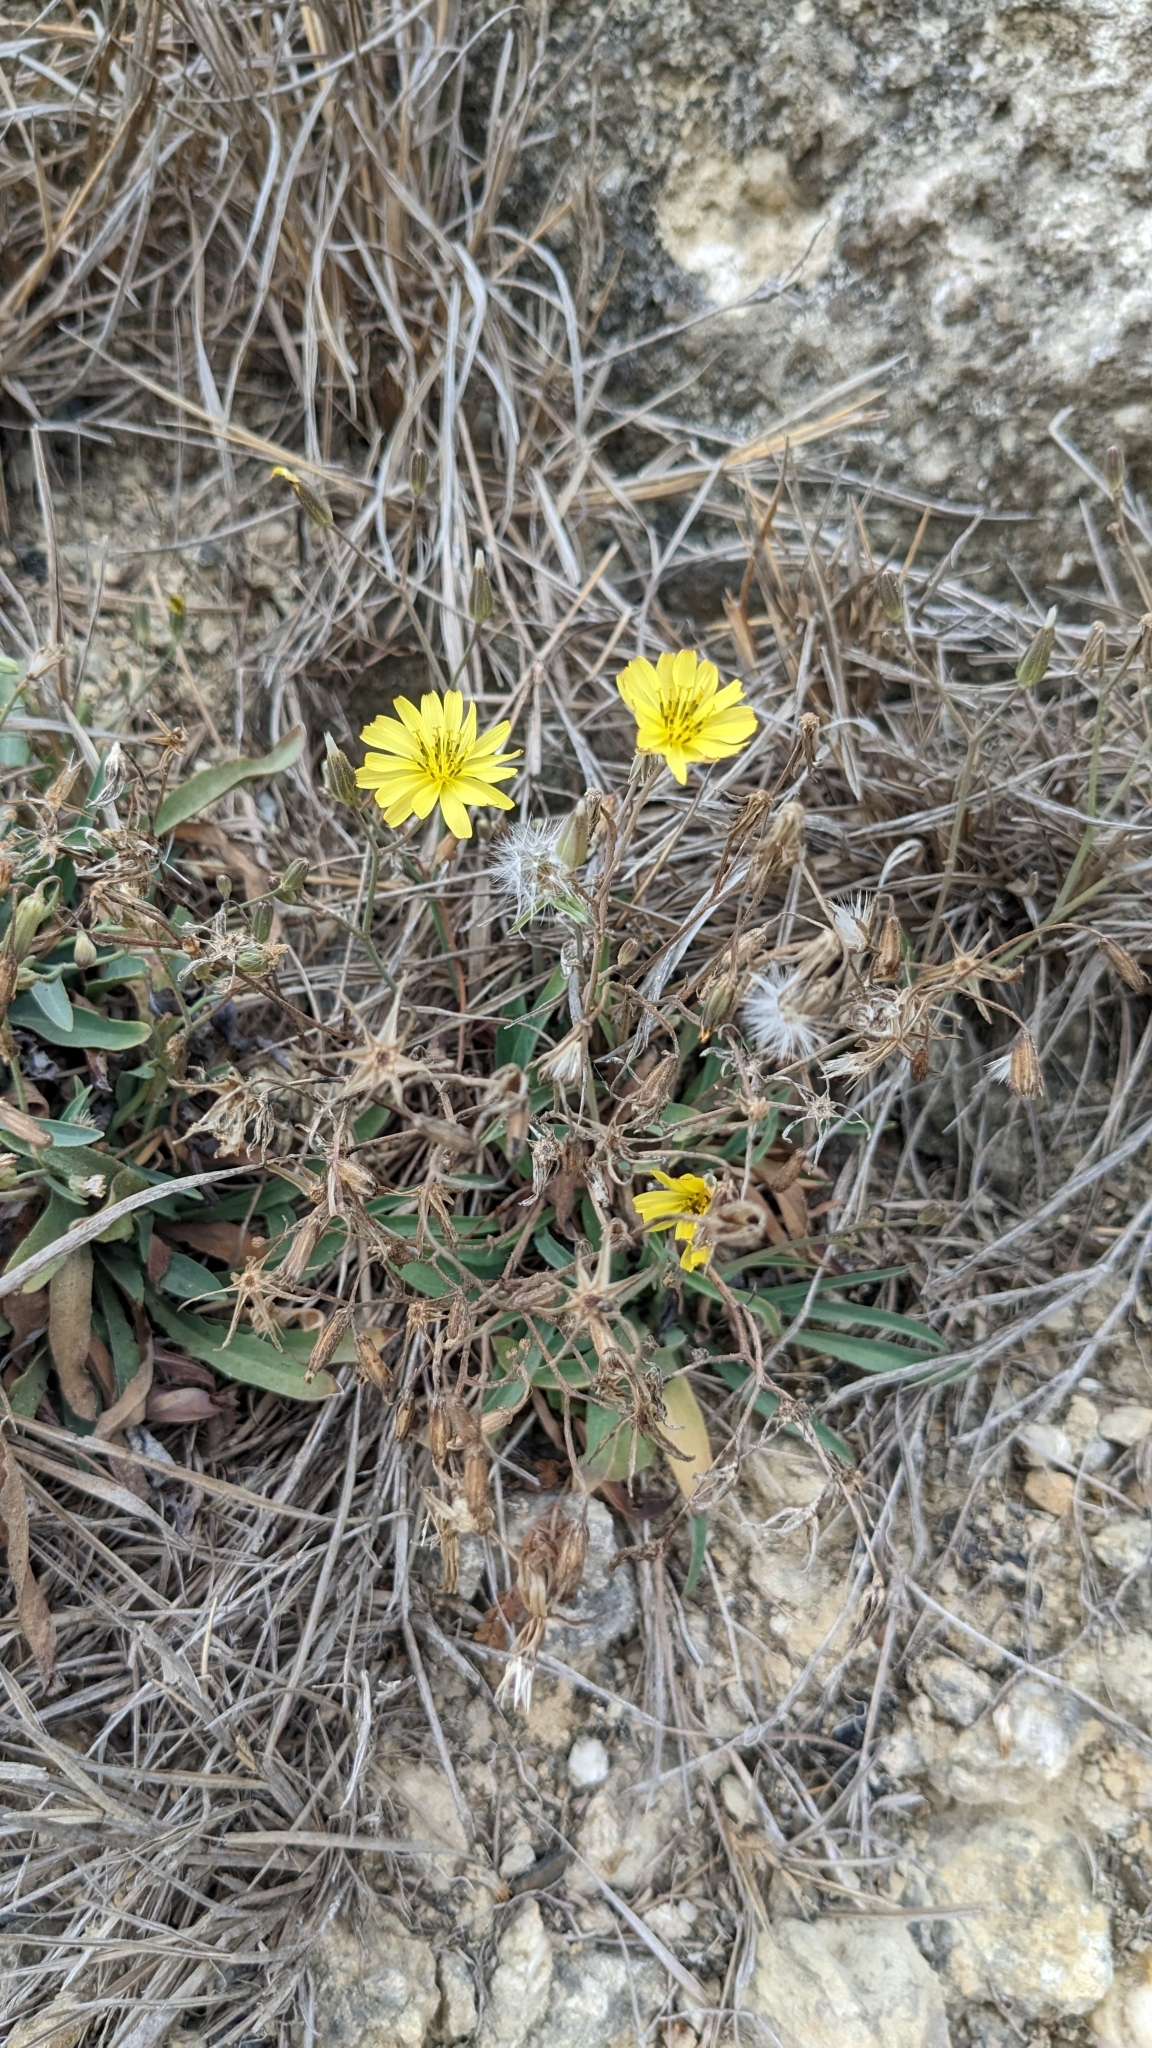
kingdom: Plantae
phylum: Tracheophyta
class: Magnoliopsida
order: Asterales
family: Asteraceae
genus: Ixeris
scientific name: Ixeris japonica
